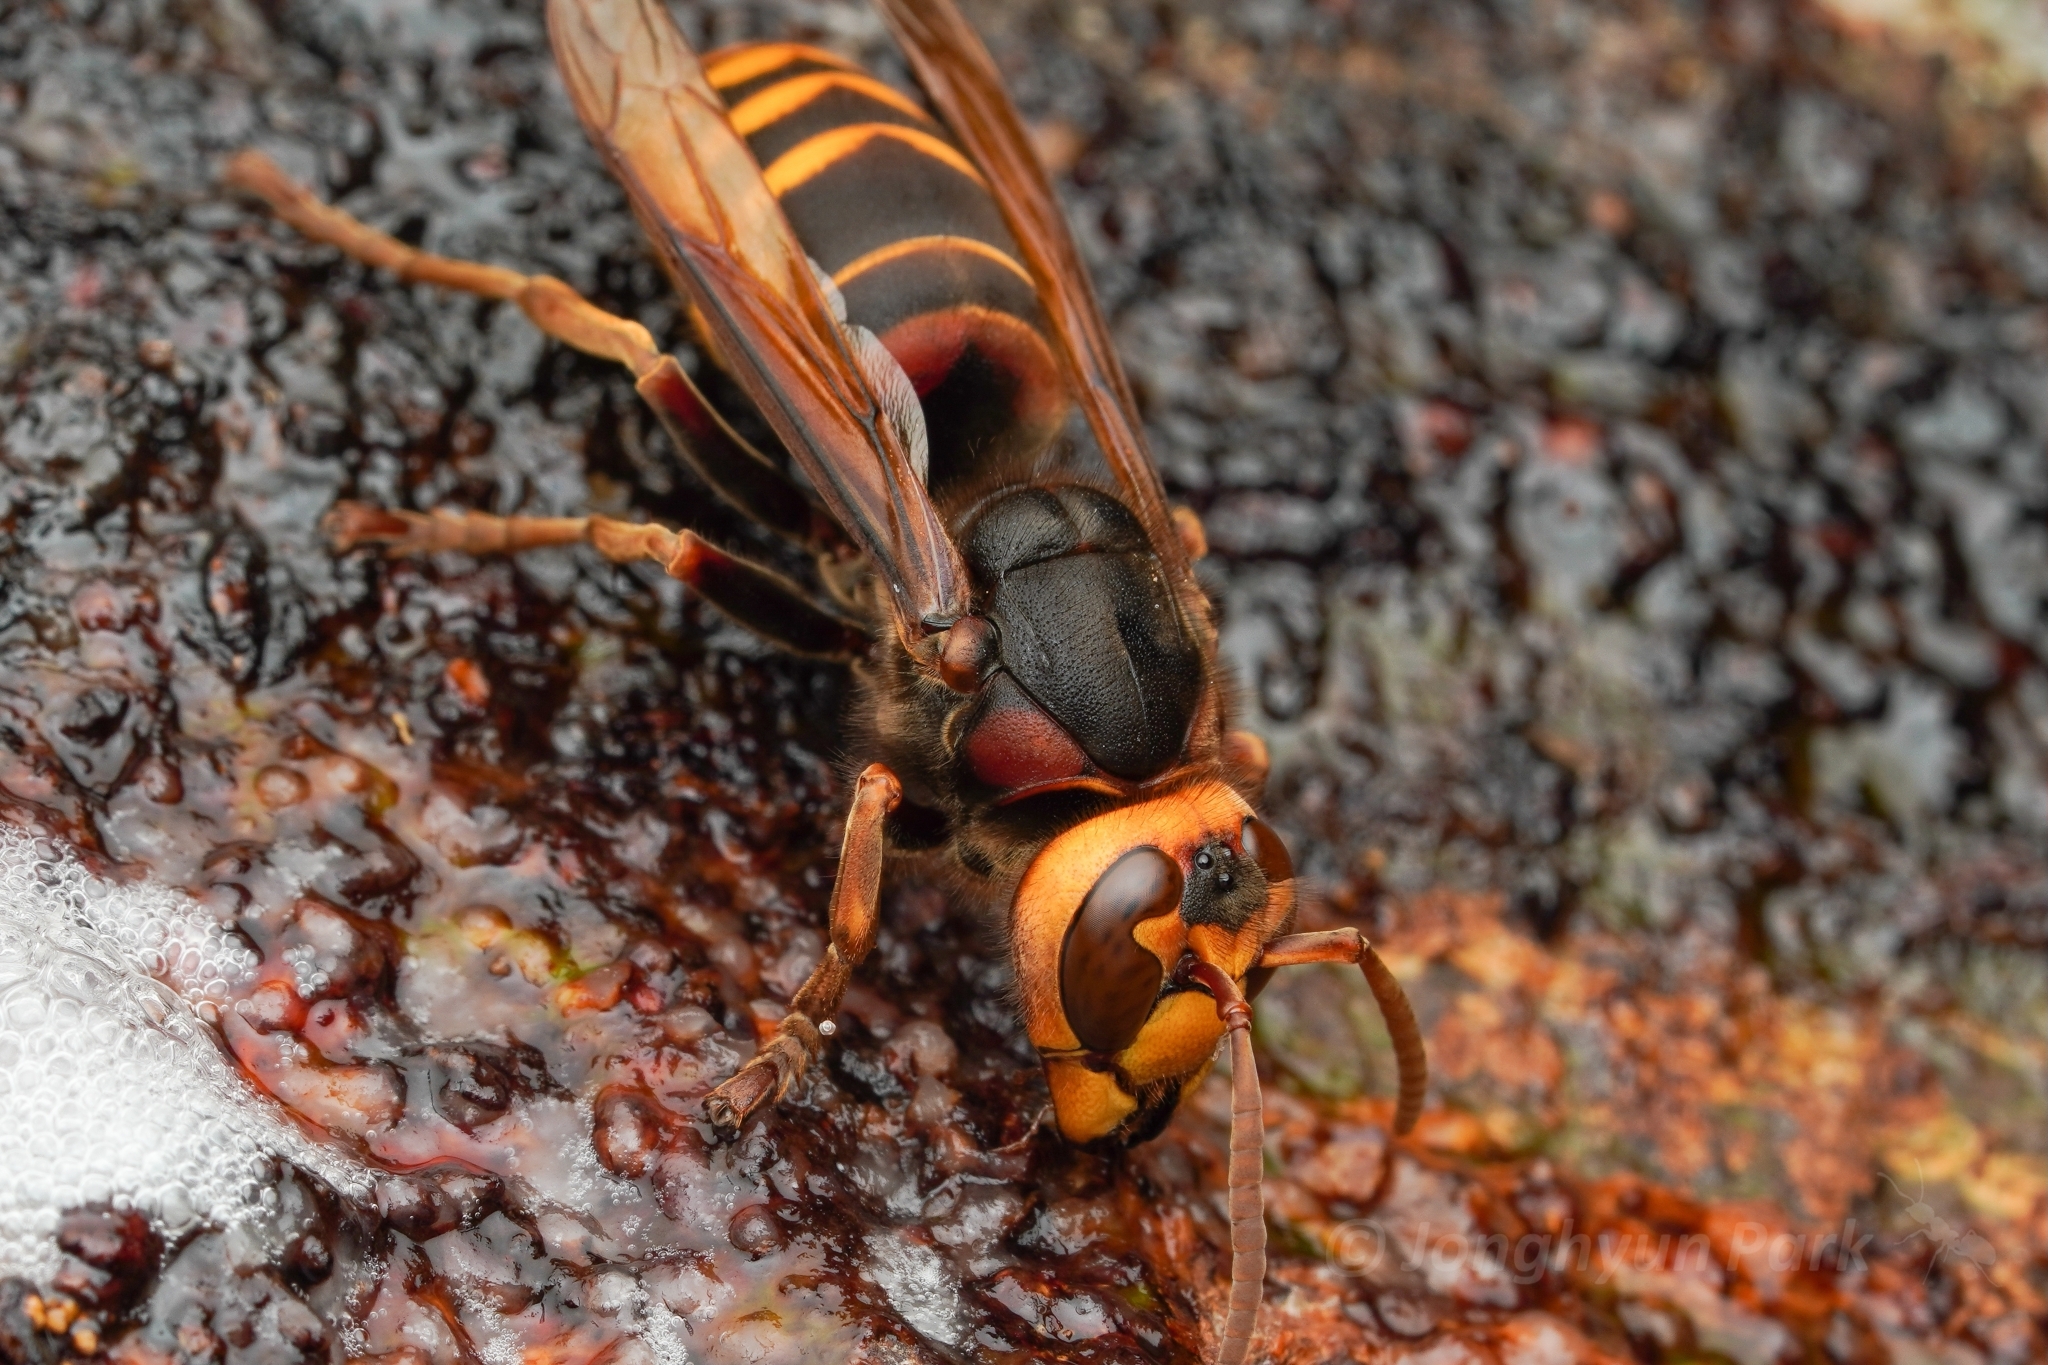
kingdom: Animalia
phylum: Arthropoda
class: Insecta
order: Hymenoptera
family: Vespidae
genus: Vespa
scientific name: Vespa crabro
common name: Hornet
